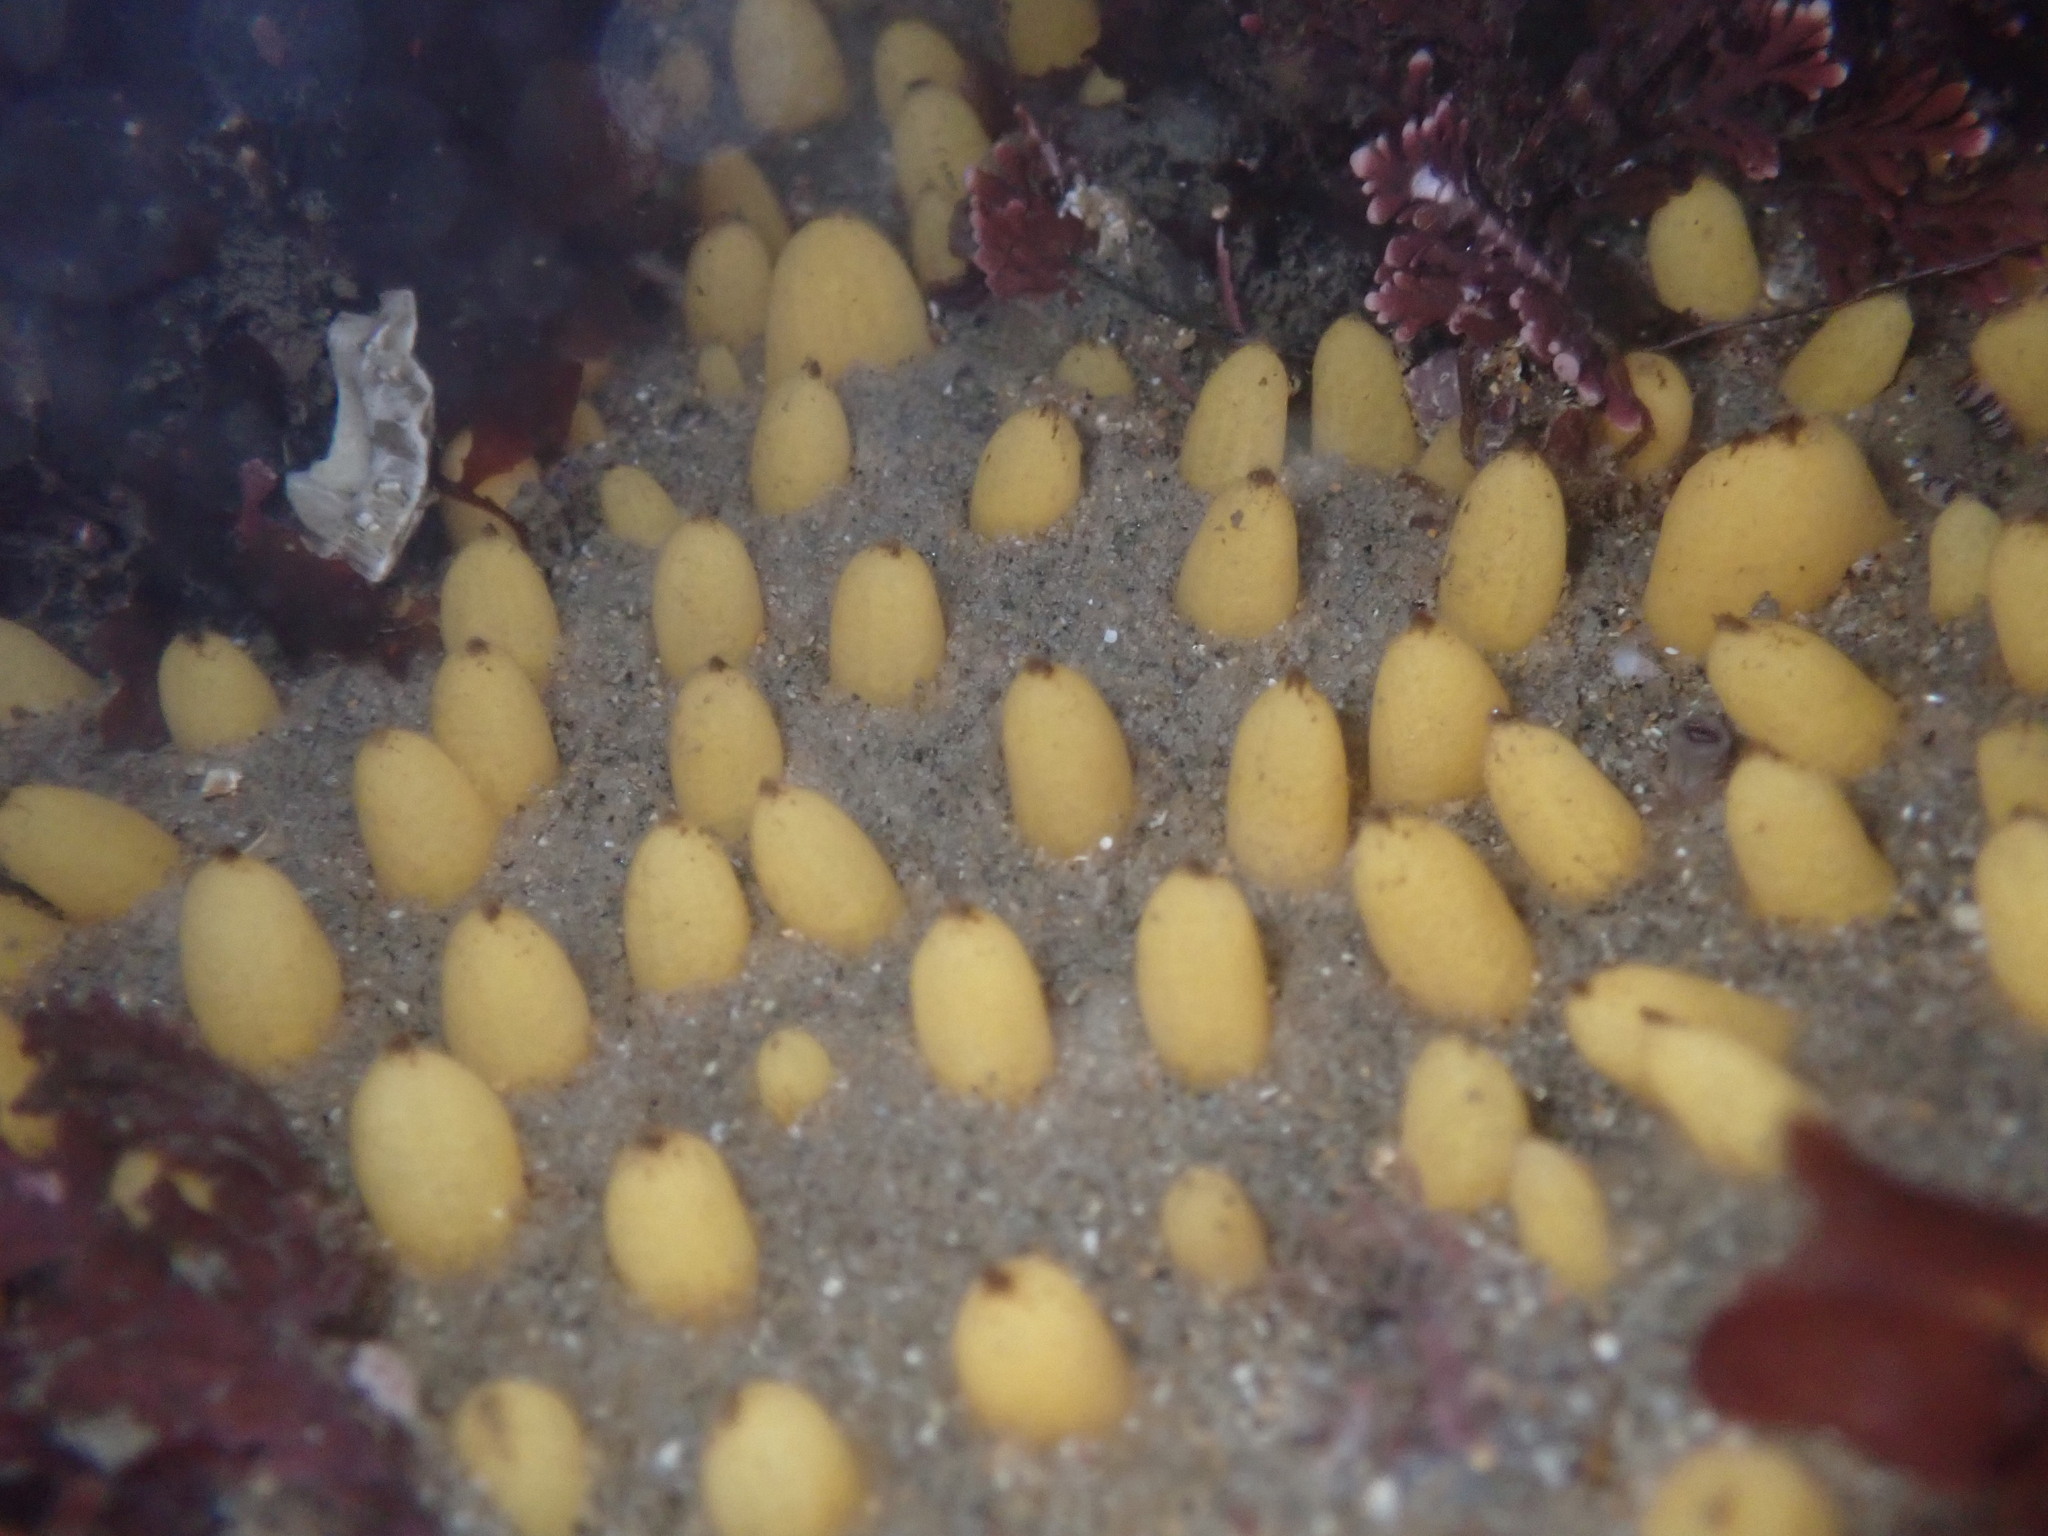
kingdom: Animalia
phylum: Porifera
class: Demospongiae
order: Polymastiida
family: Polymastiidae
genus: Polymastia
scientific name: Polymastia pachymastia
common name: Aggregated nipple horny sponge
